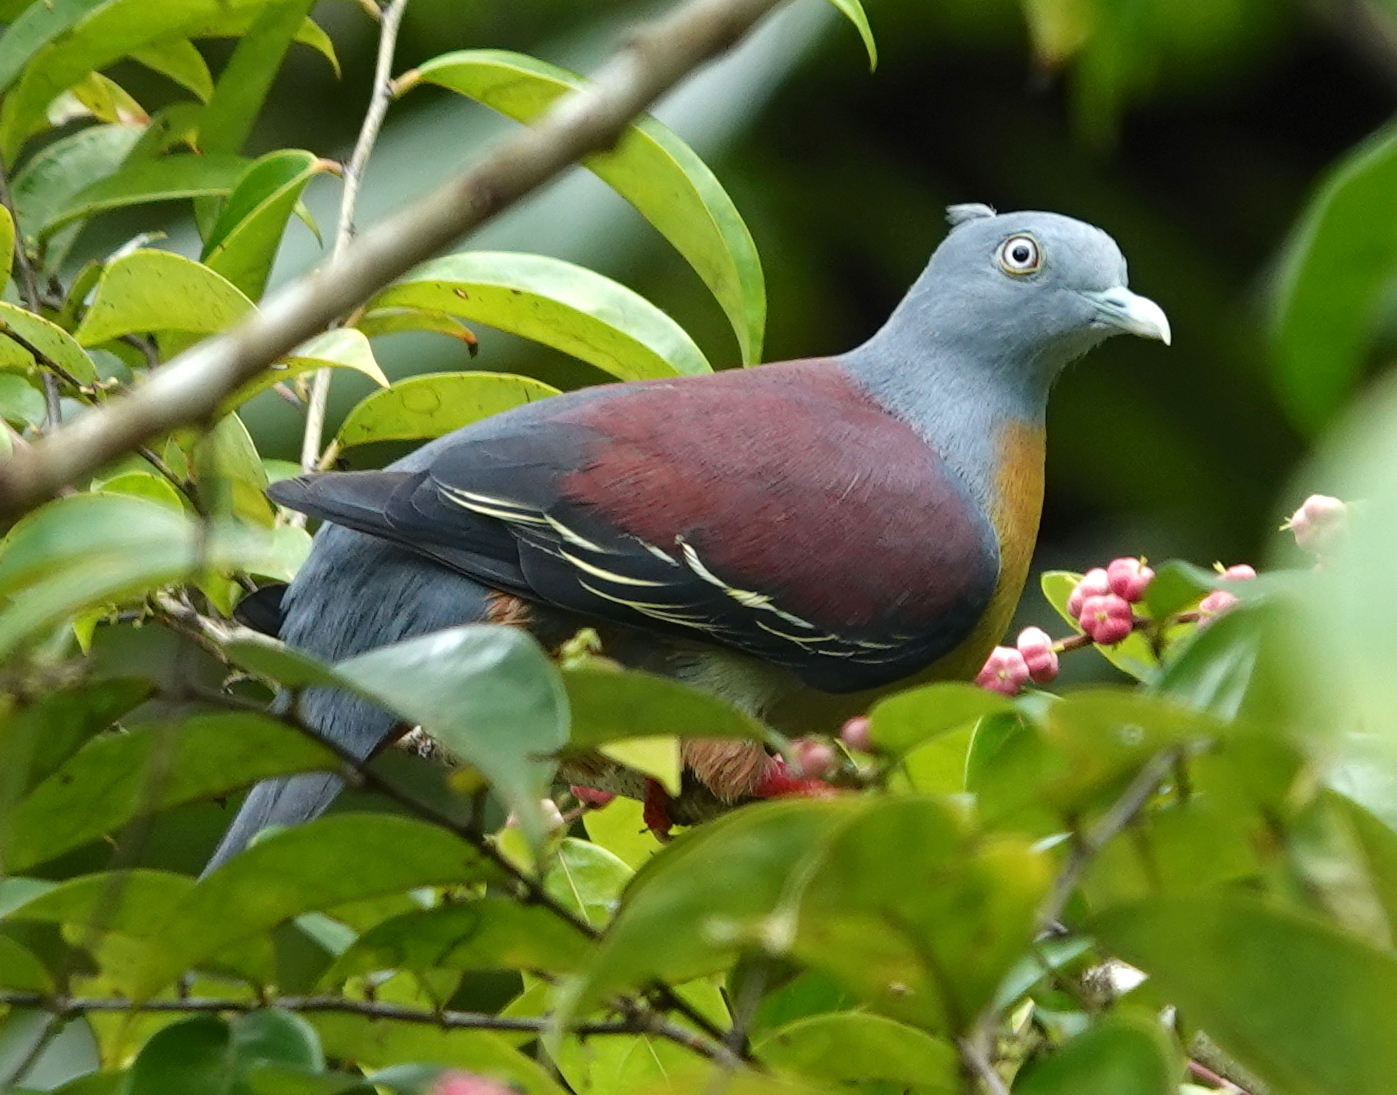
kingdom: Animalia
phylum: Chordata
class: Aves
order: Columbiformes
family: Columbidae
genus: Treron
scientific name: Treron olax
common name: Little green pigeon
